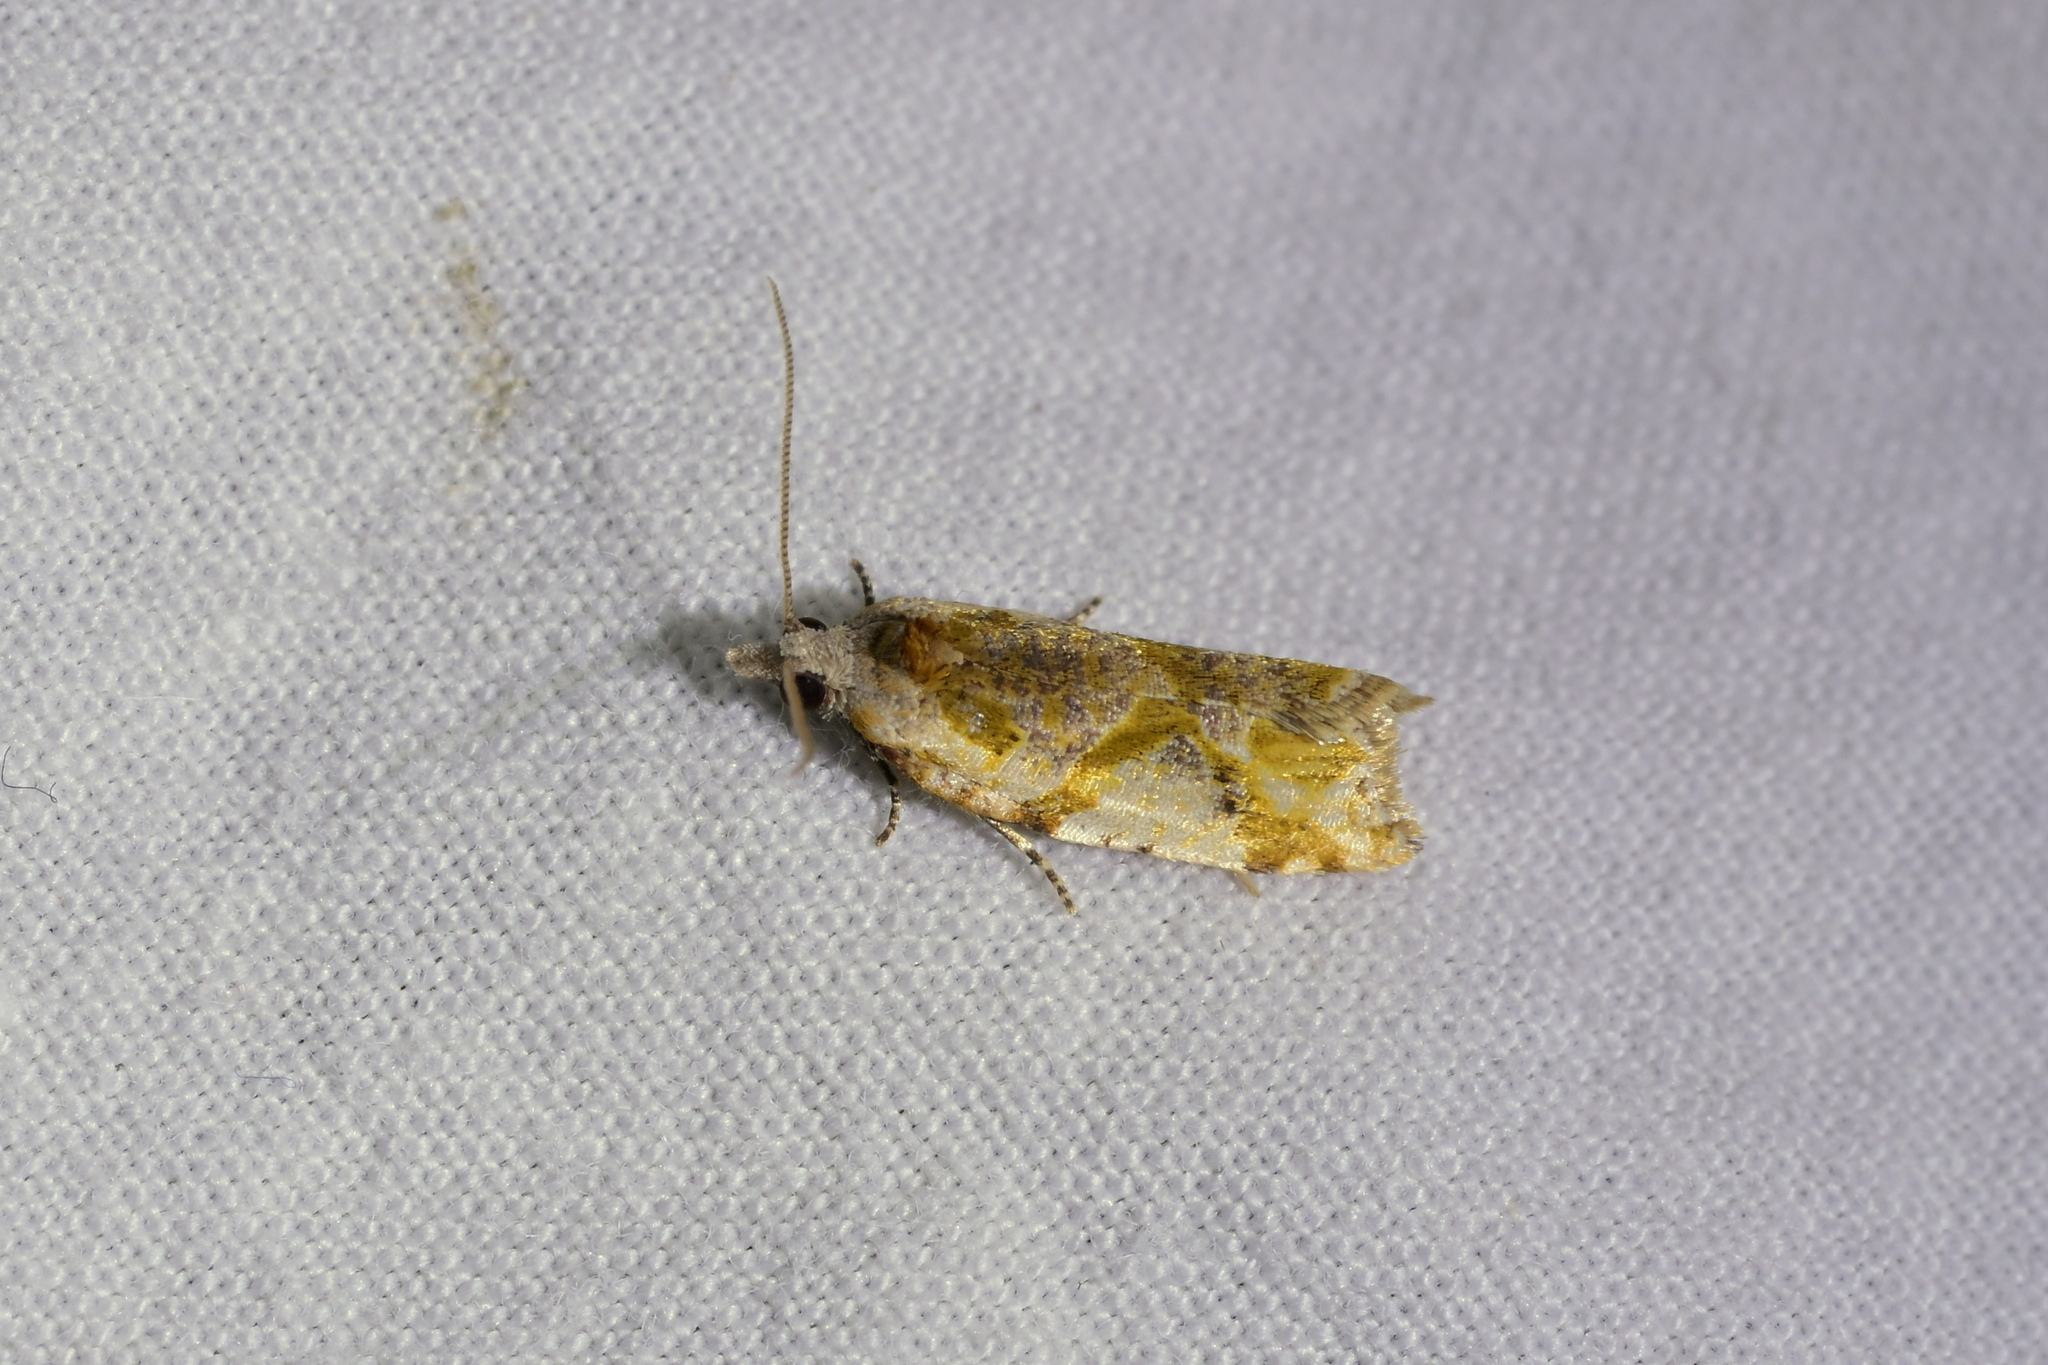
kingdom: Animalia
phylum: Arthropoda
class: Insecta
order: Lepidoptera
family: Tortricidae
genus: Pyrgotis
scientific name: Pyrgotis plagiatana
